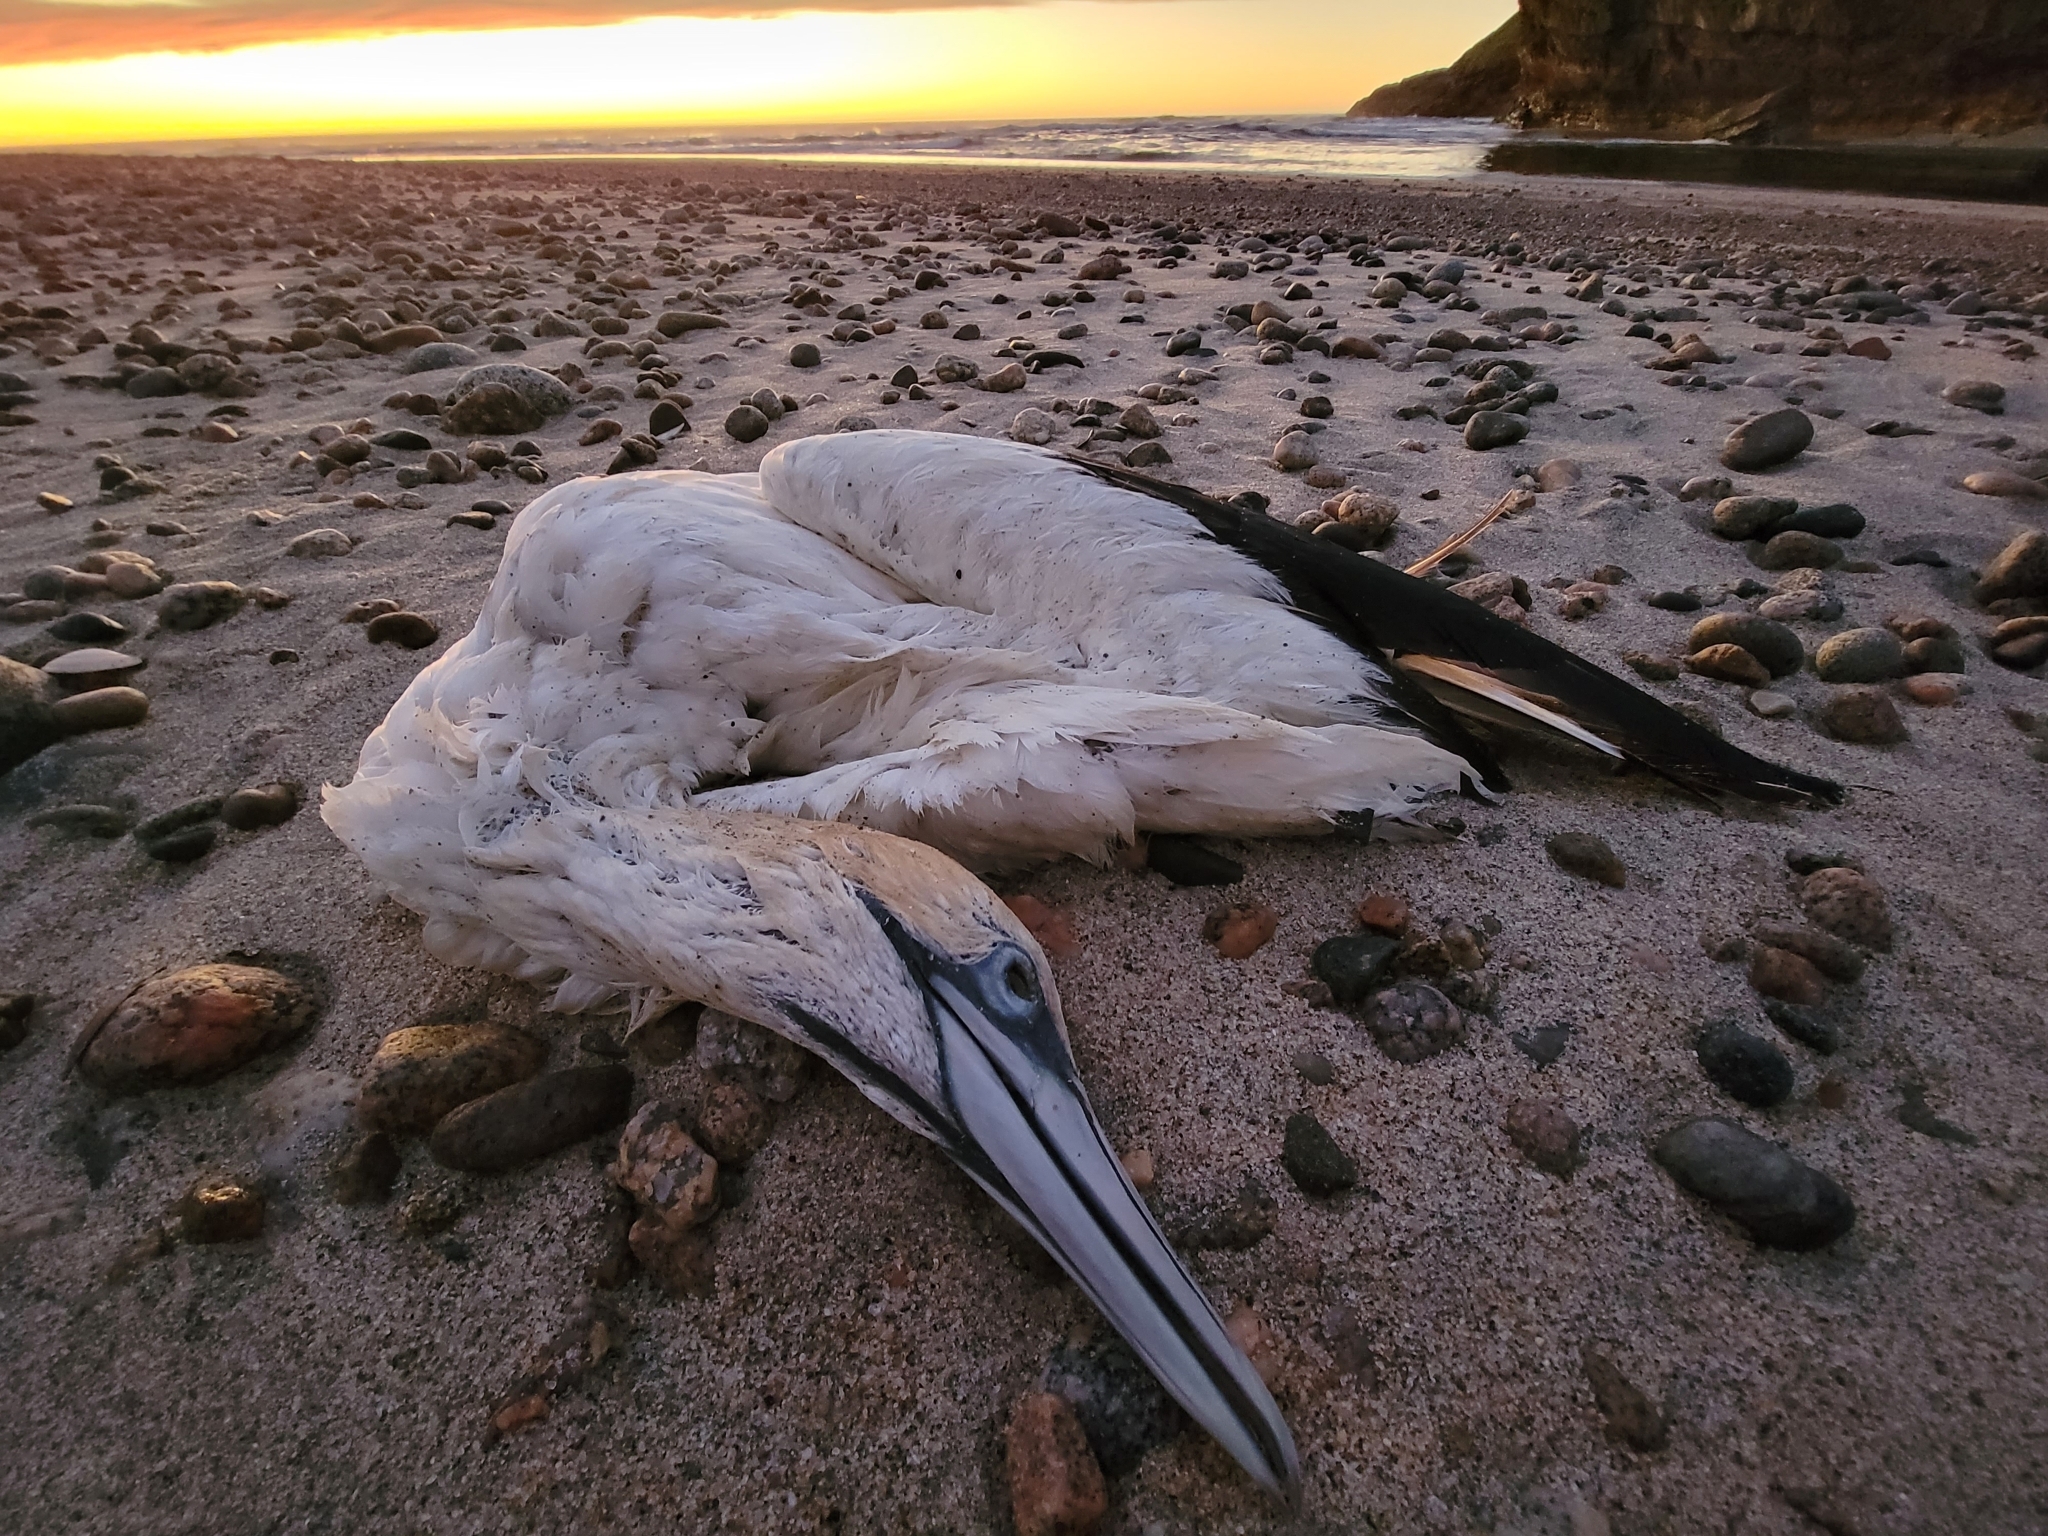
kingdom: Animalia
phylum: Chordata
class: Aves
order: Suliformes
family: Sulidae
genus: Morus
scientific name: Morus serrator
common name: Australasian gannet
